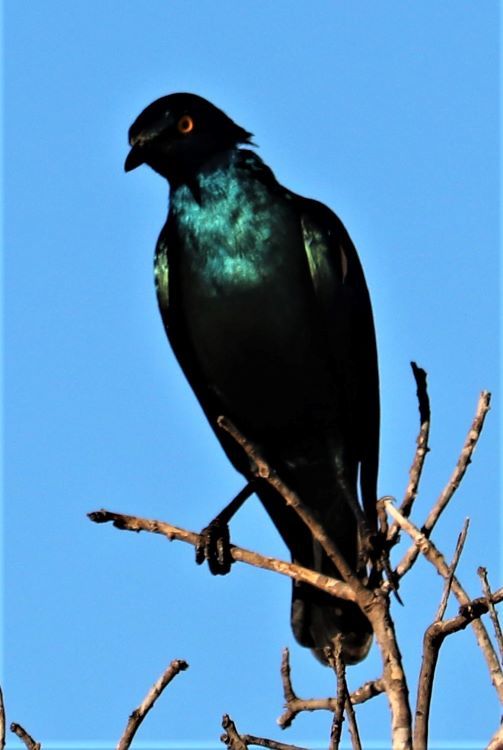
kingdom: Animalia
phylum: Chordata
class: Aves
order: Passeriformes
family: Sturnidae
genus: Lamprotornis
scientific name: Lamprotornis nitens
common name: Cape starling
